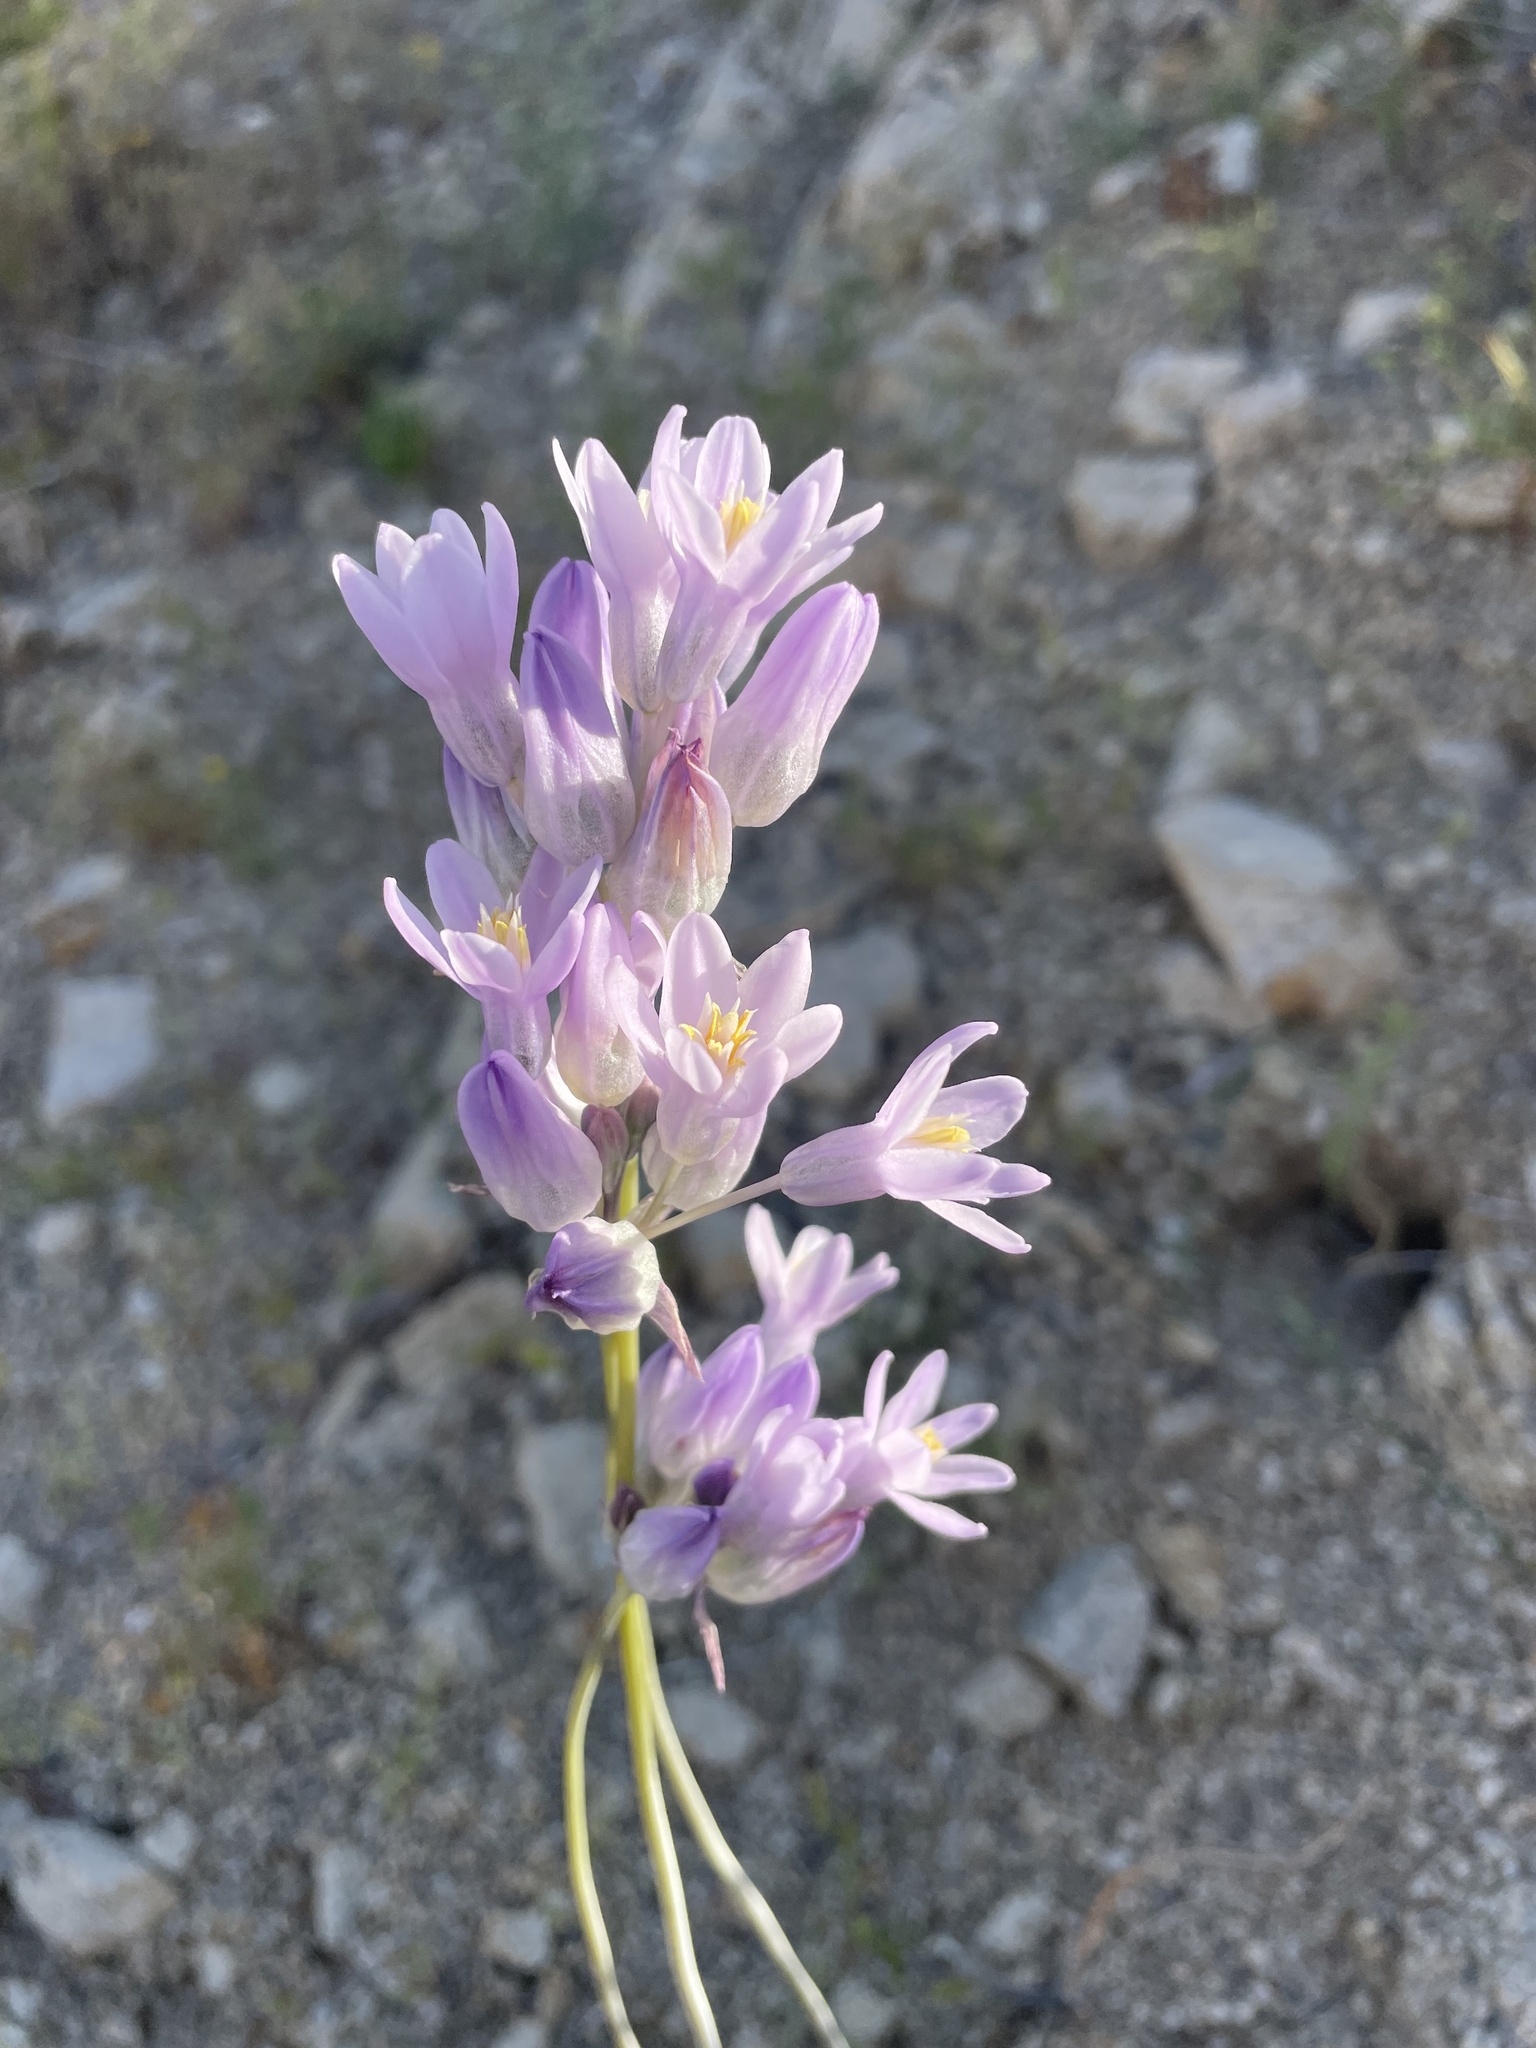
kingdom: Plantae
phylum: Tracheophyta
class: Liliopsida
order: Asparagales
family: Asparagaceae
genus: Dipterostemon
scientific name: Dipterostemon capitatus
